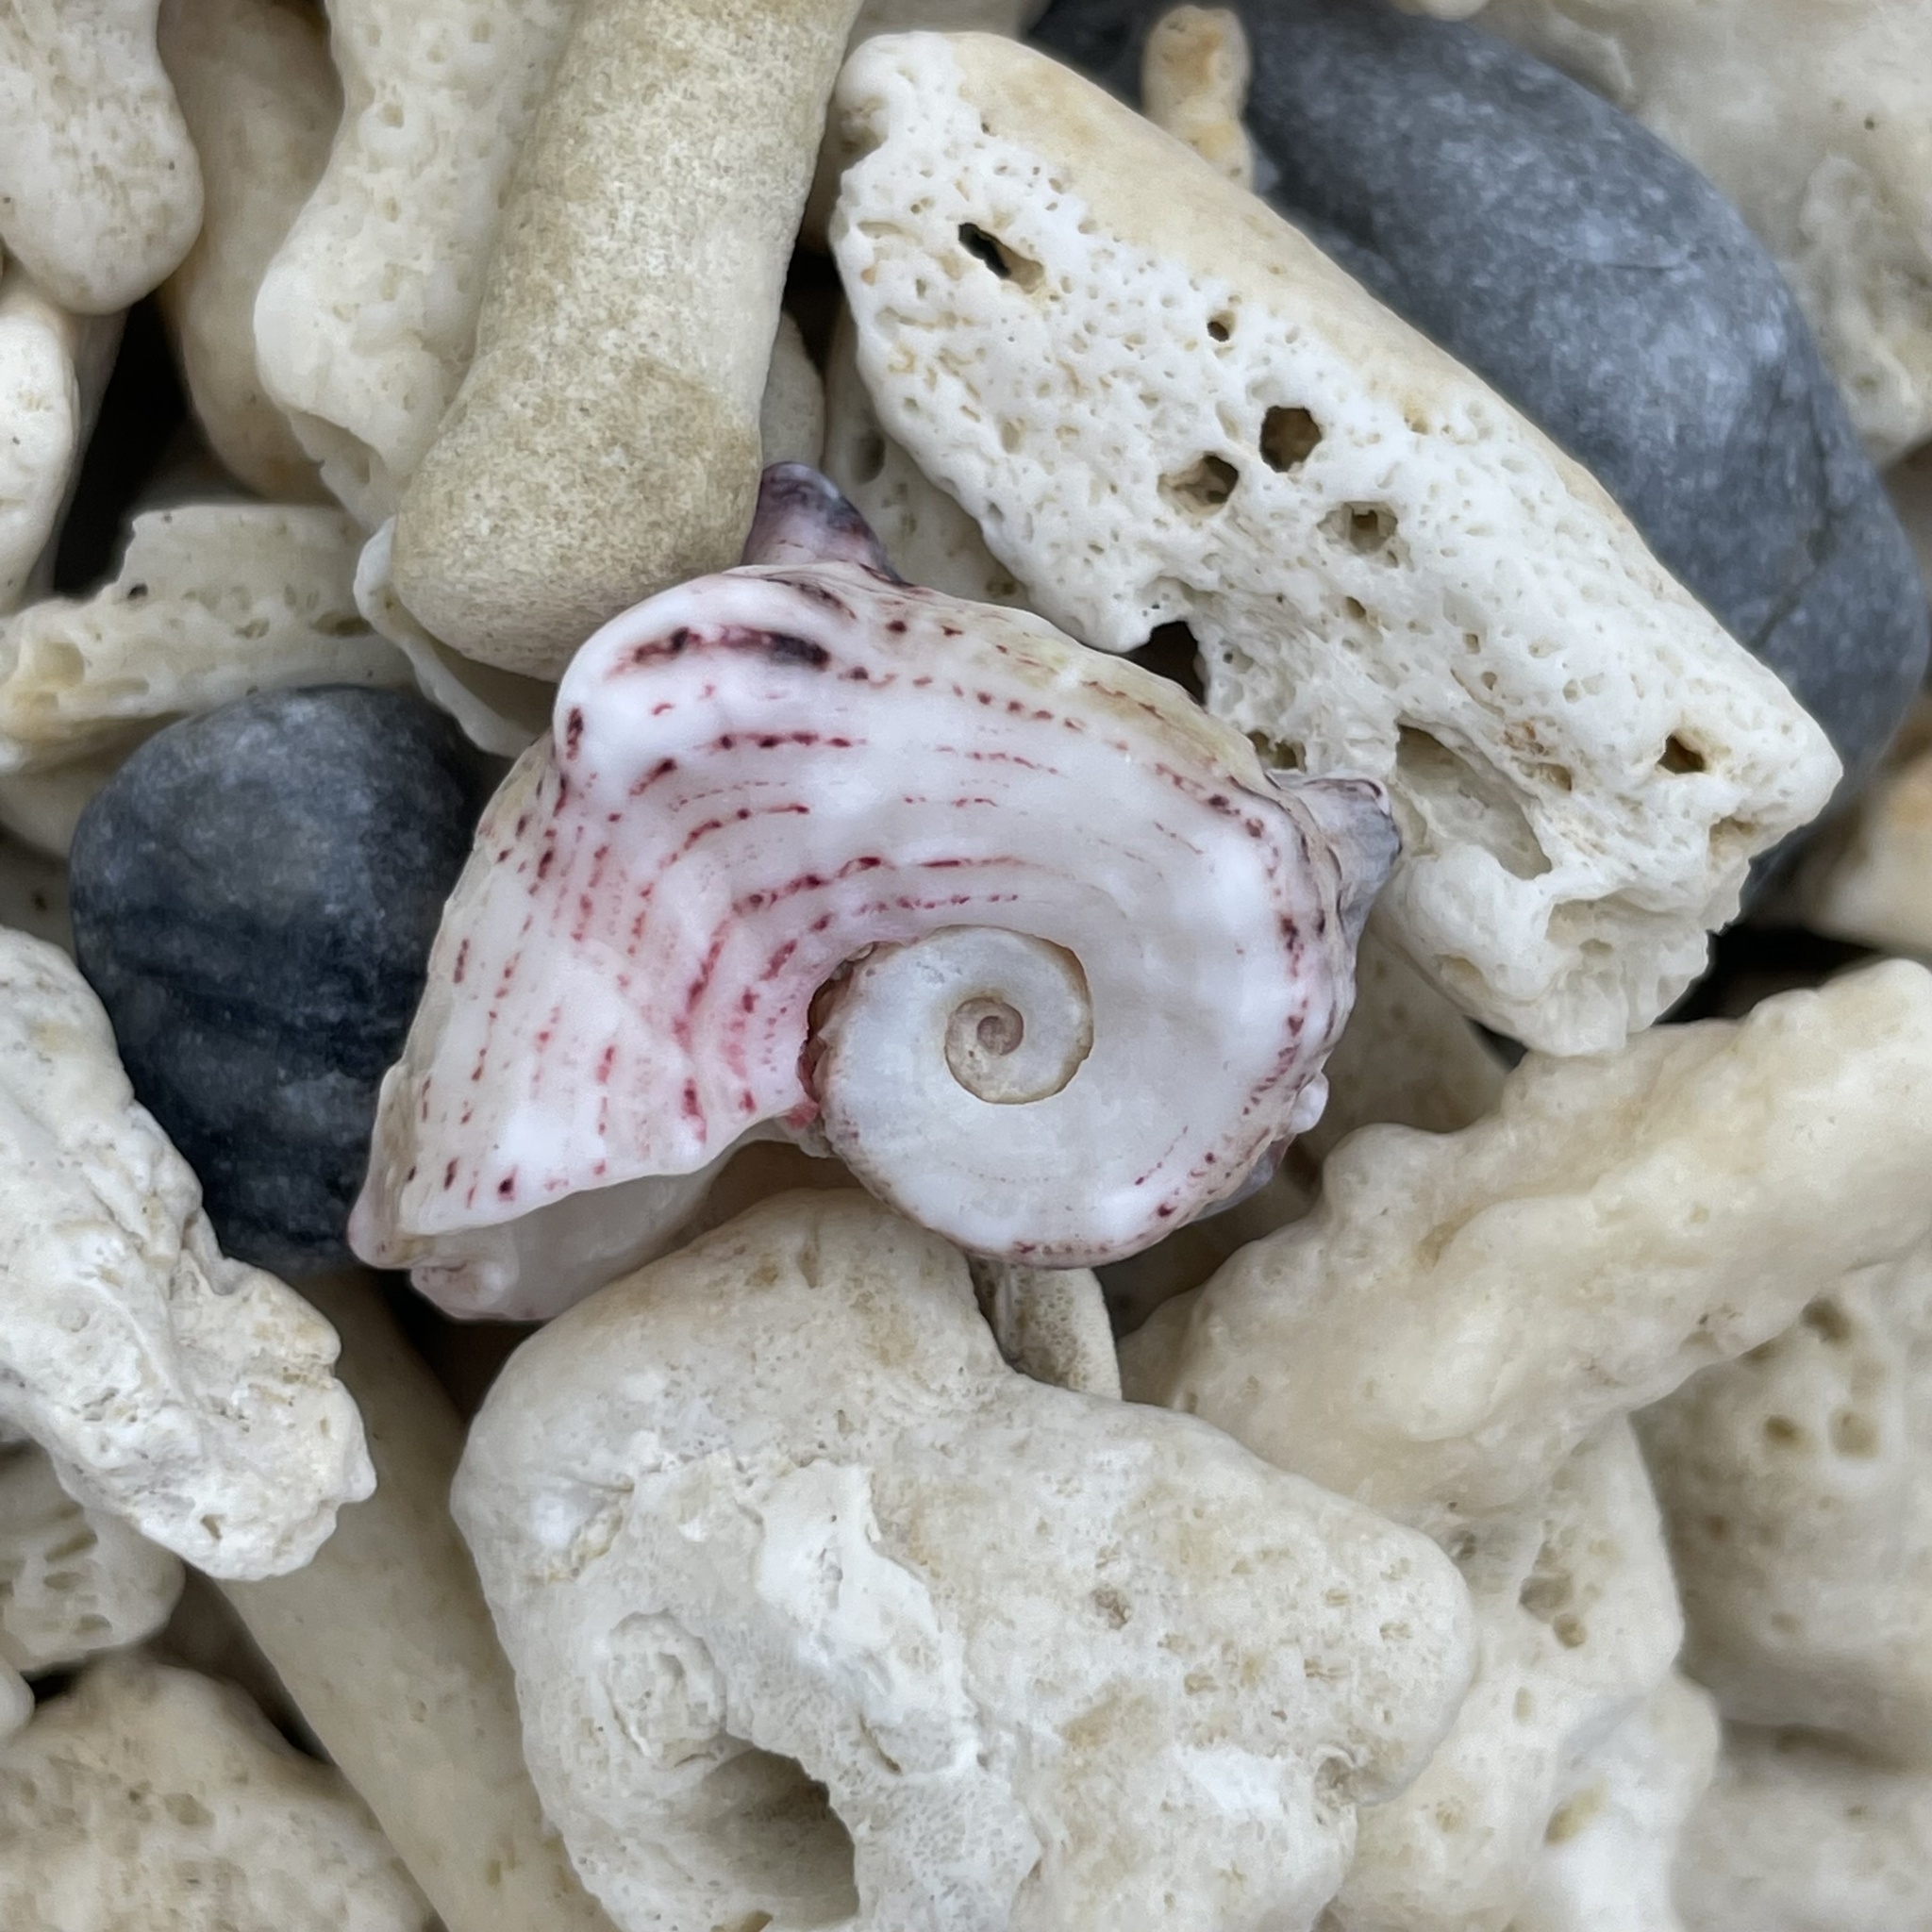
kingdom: Animalia
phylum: Mollusca
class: Gastropoda
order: Trochida
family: Angariidae
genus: Angaria
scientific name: Angaria exasperata
